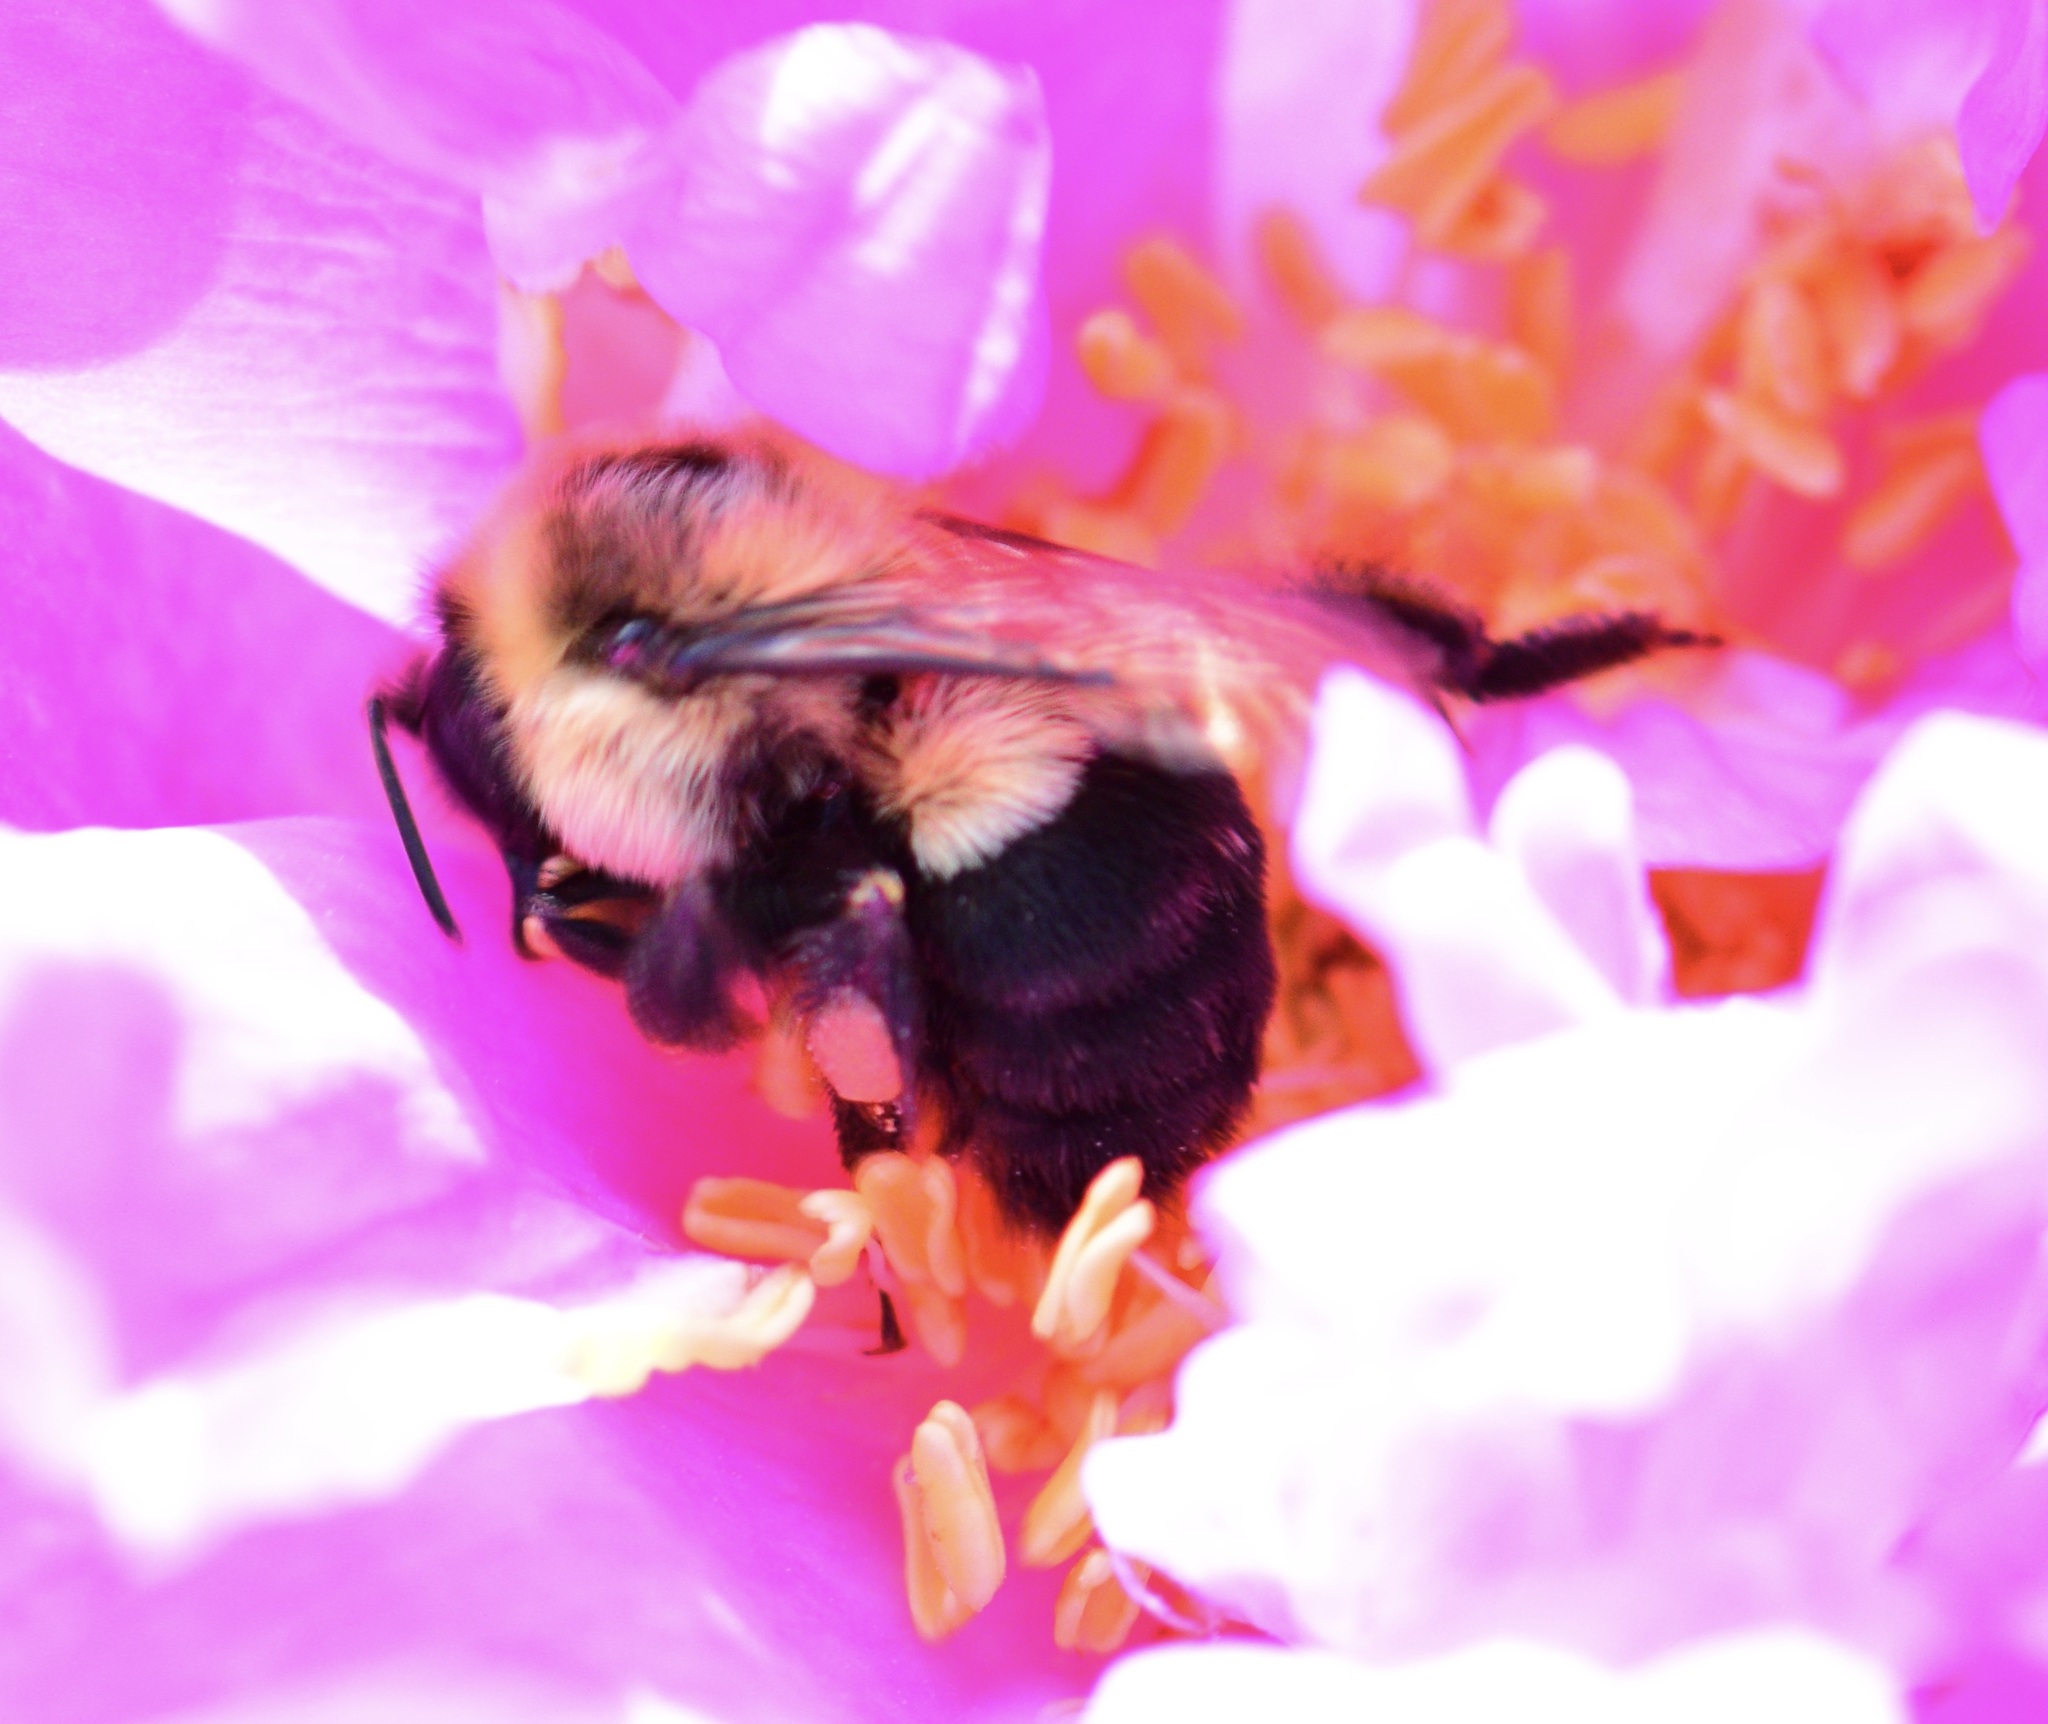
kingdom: Animalia
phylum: Arthropoda
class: Insecta
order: Hymenoptera
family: Apidae
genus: Bombus
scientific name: Bombus impatiens
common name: Common eastern bumble bee
